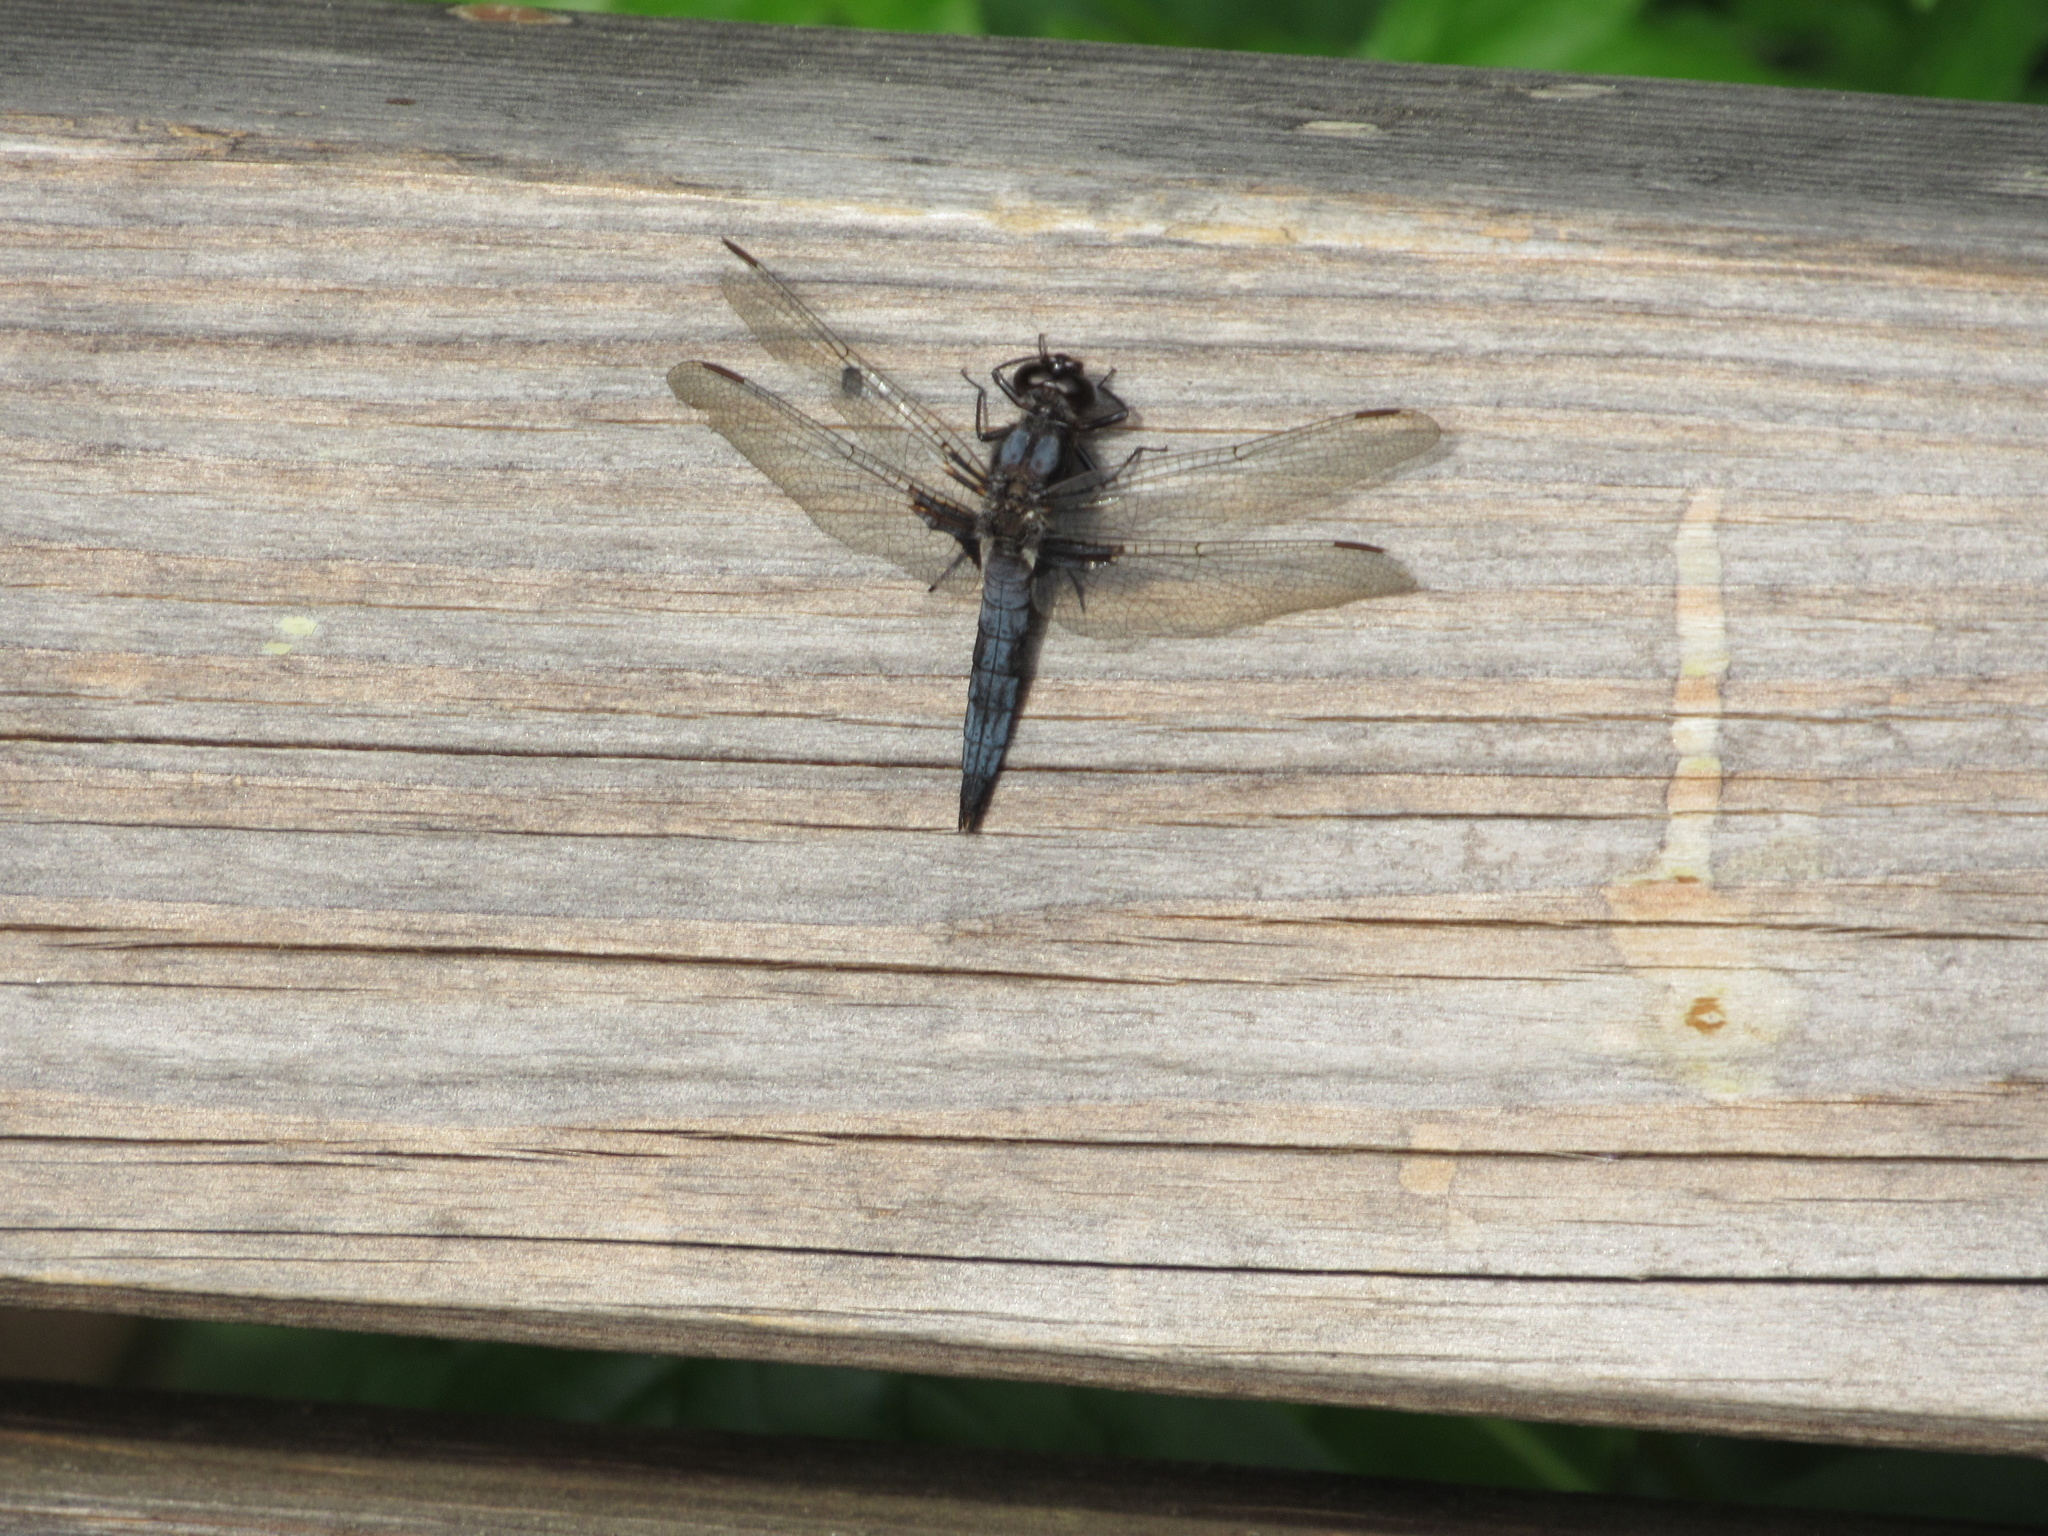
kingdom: Animalia
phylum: Arthropoda
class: Insecta
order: Odonata
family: Libellulidae
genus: Ladona
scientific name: Ladona deplanata
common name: Blue corporal
